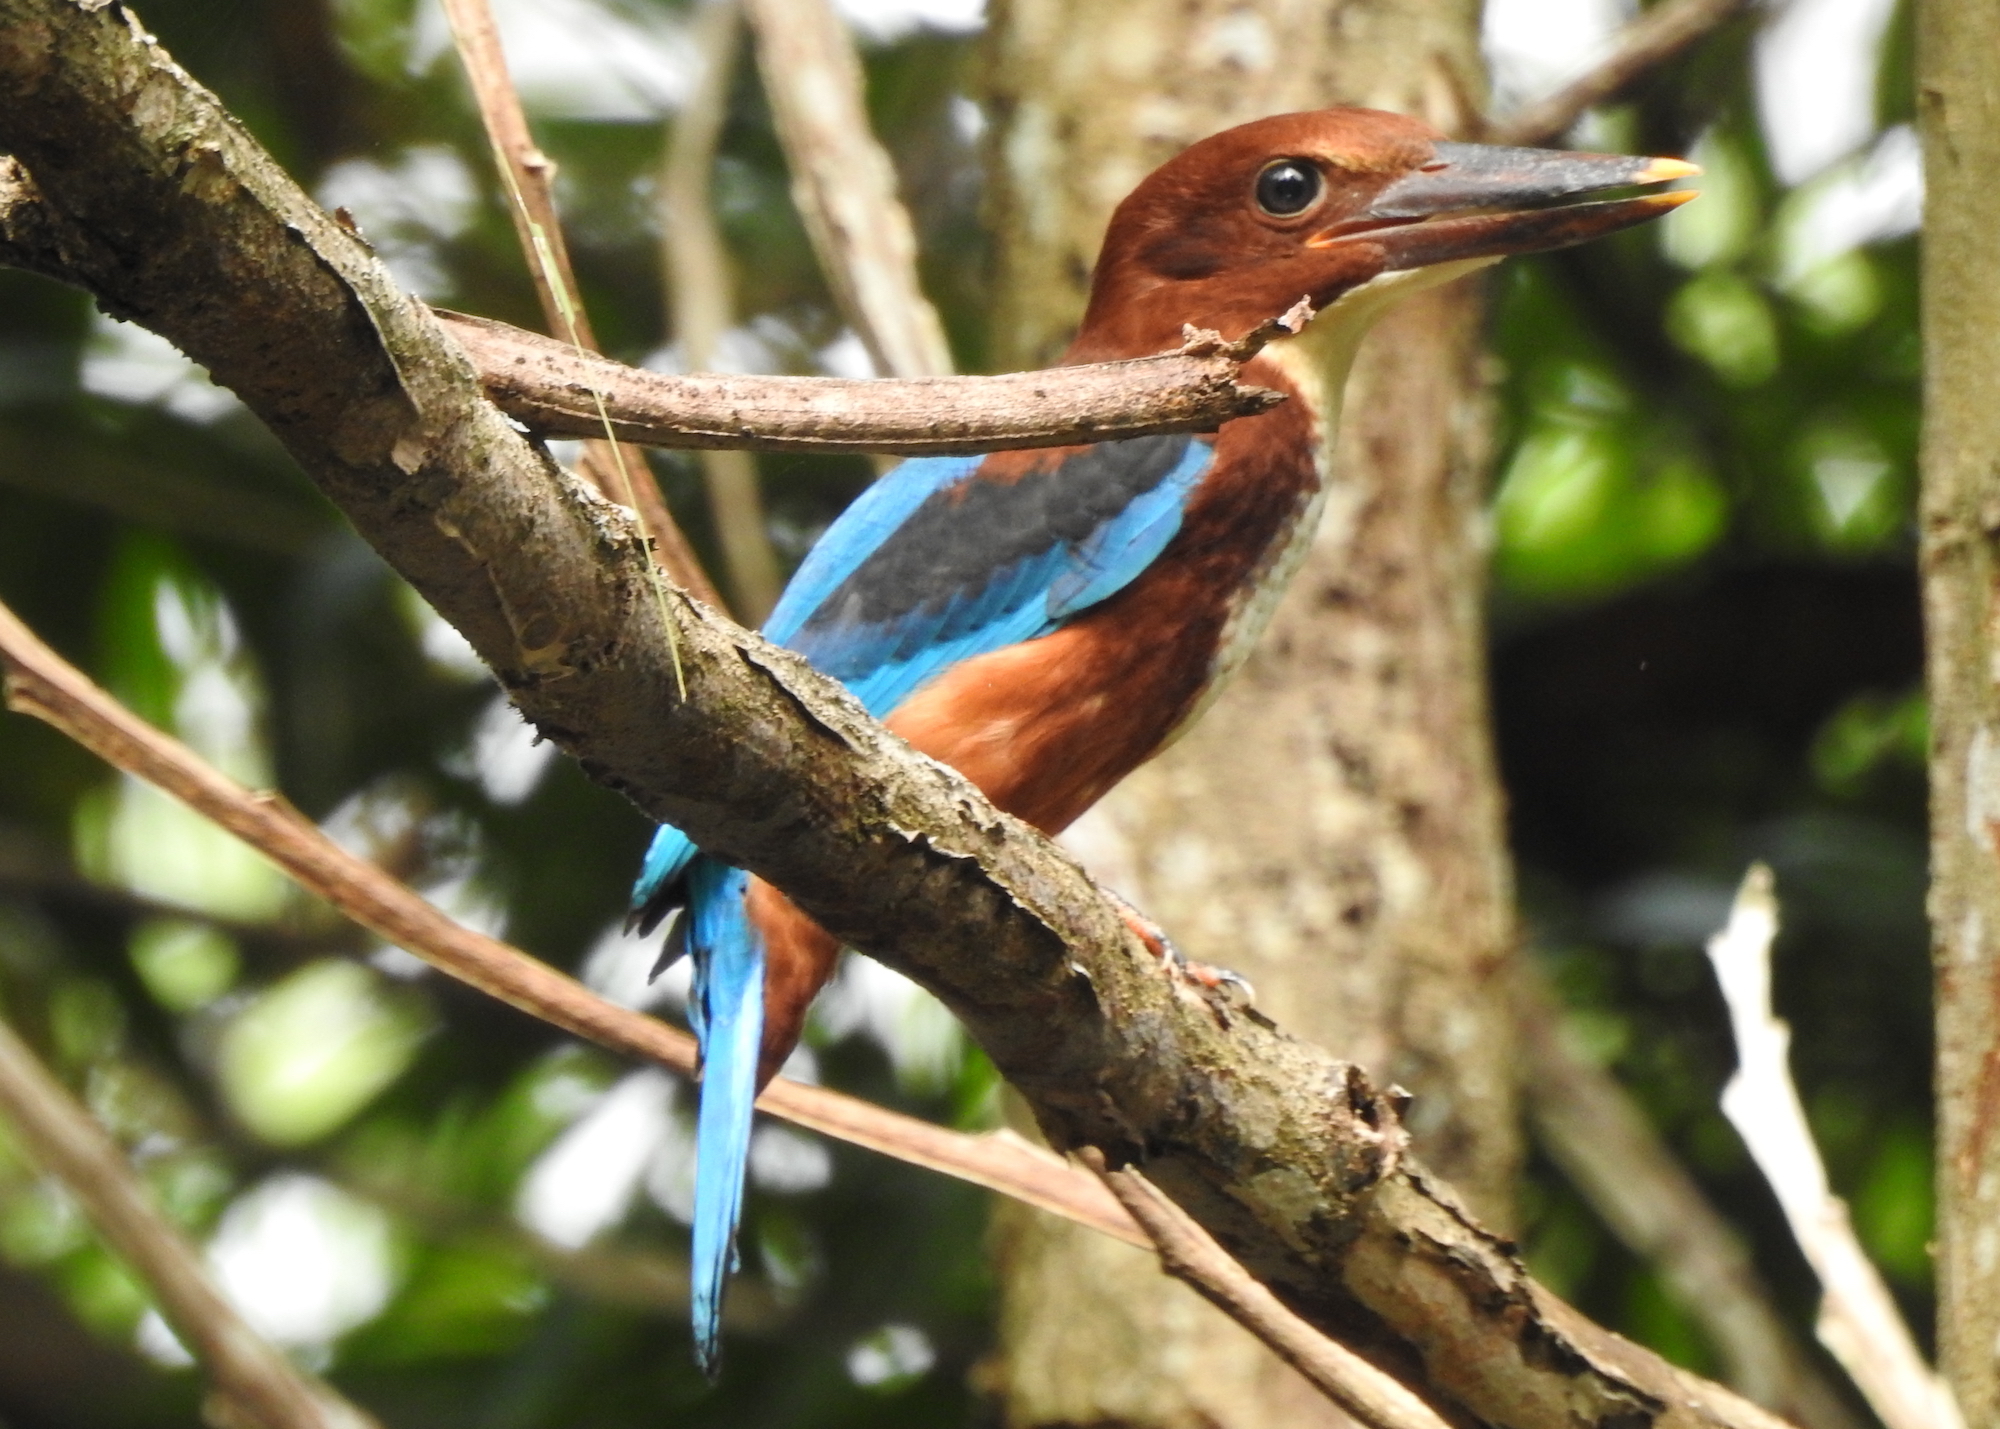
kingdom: Animalia
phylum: Chordata
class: Aves
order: Coraciiformes
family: Alcedinidae
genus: Halcyon
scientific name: Halcyon smyrnensis
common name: White-throated kingfisher
